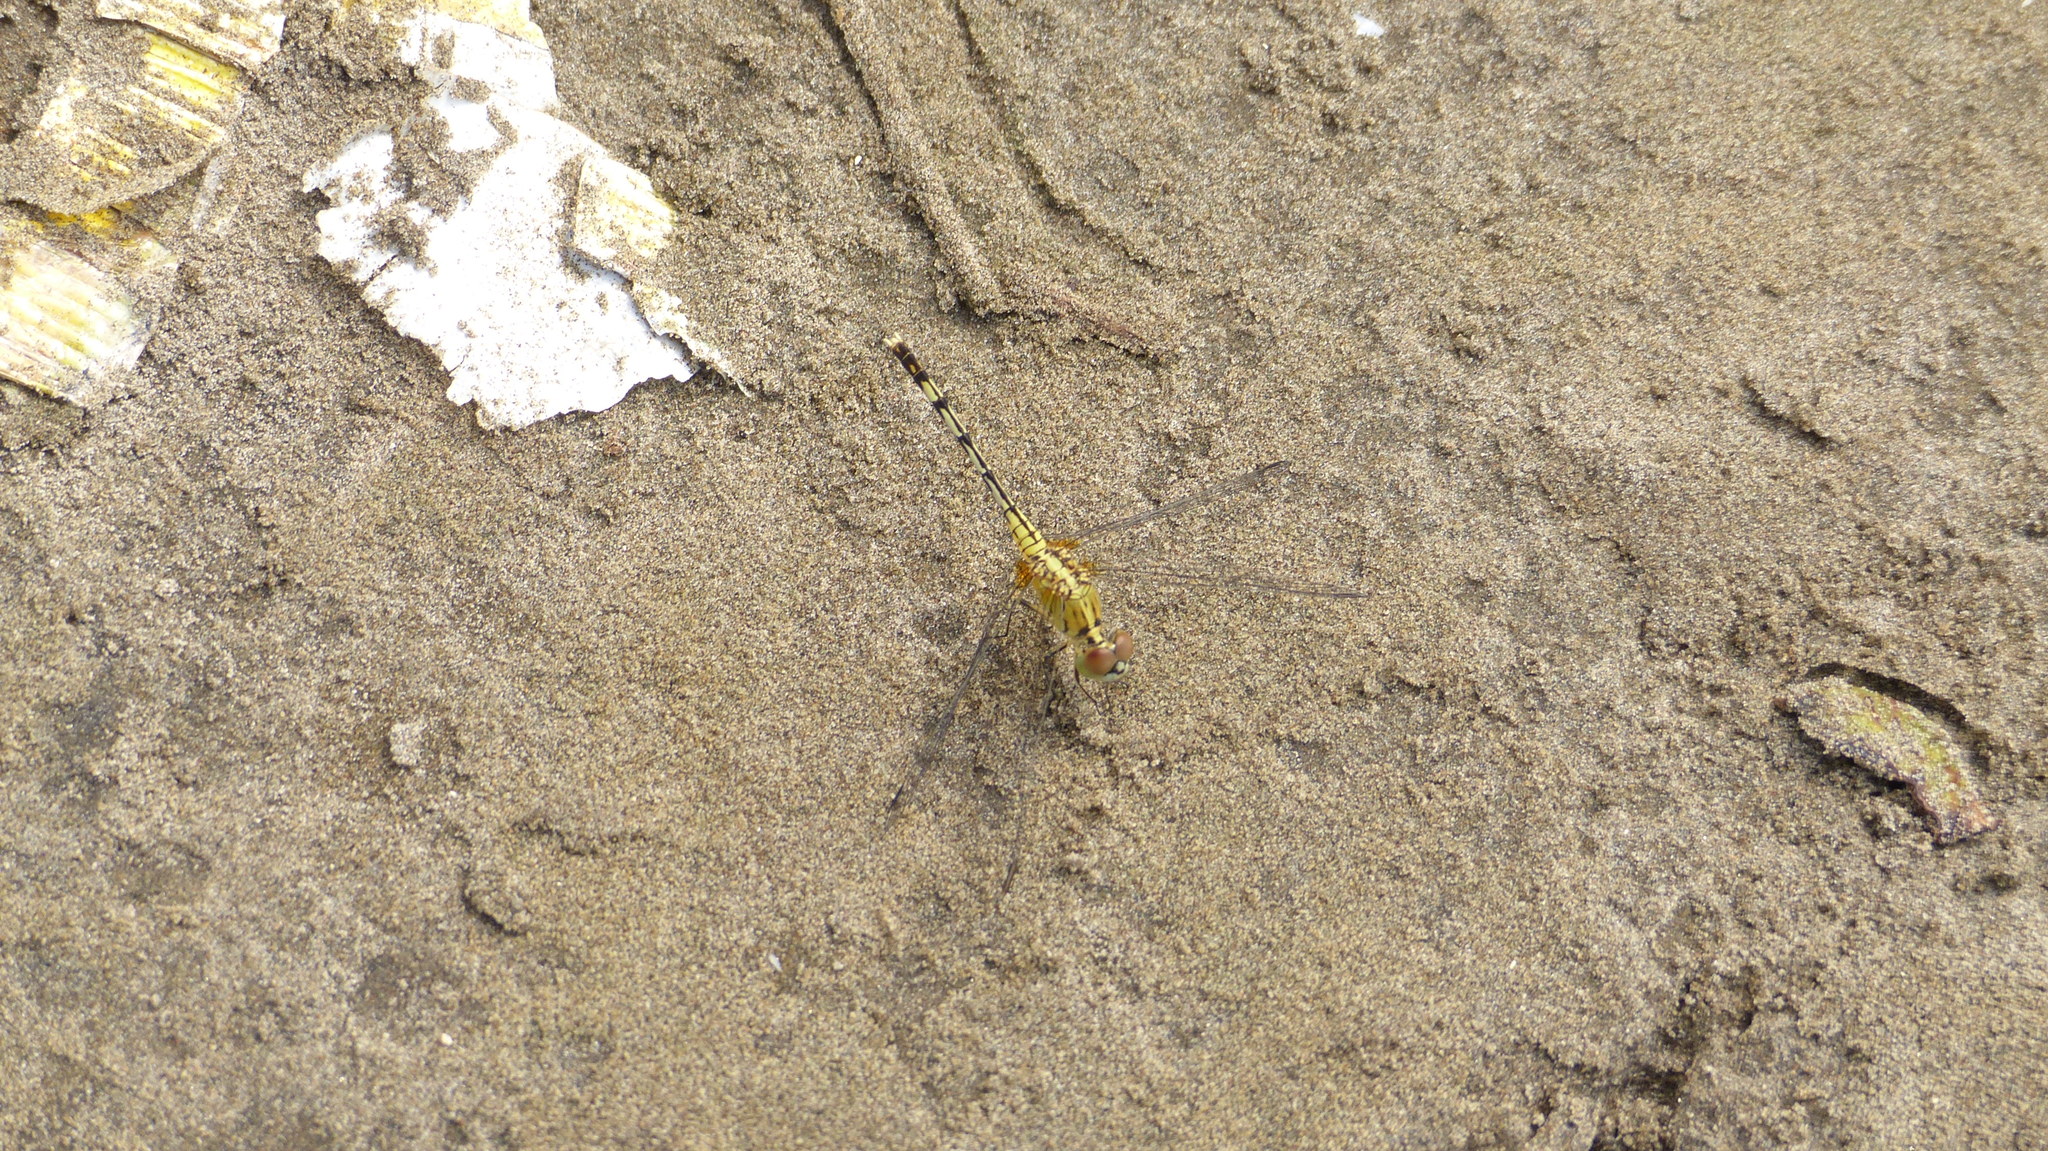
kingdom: Animalia
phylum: Arthropoda
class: Insecta
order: Odonata
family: Libellulidae
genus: Diplacodes
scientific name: Diplacodes trivialis
